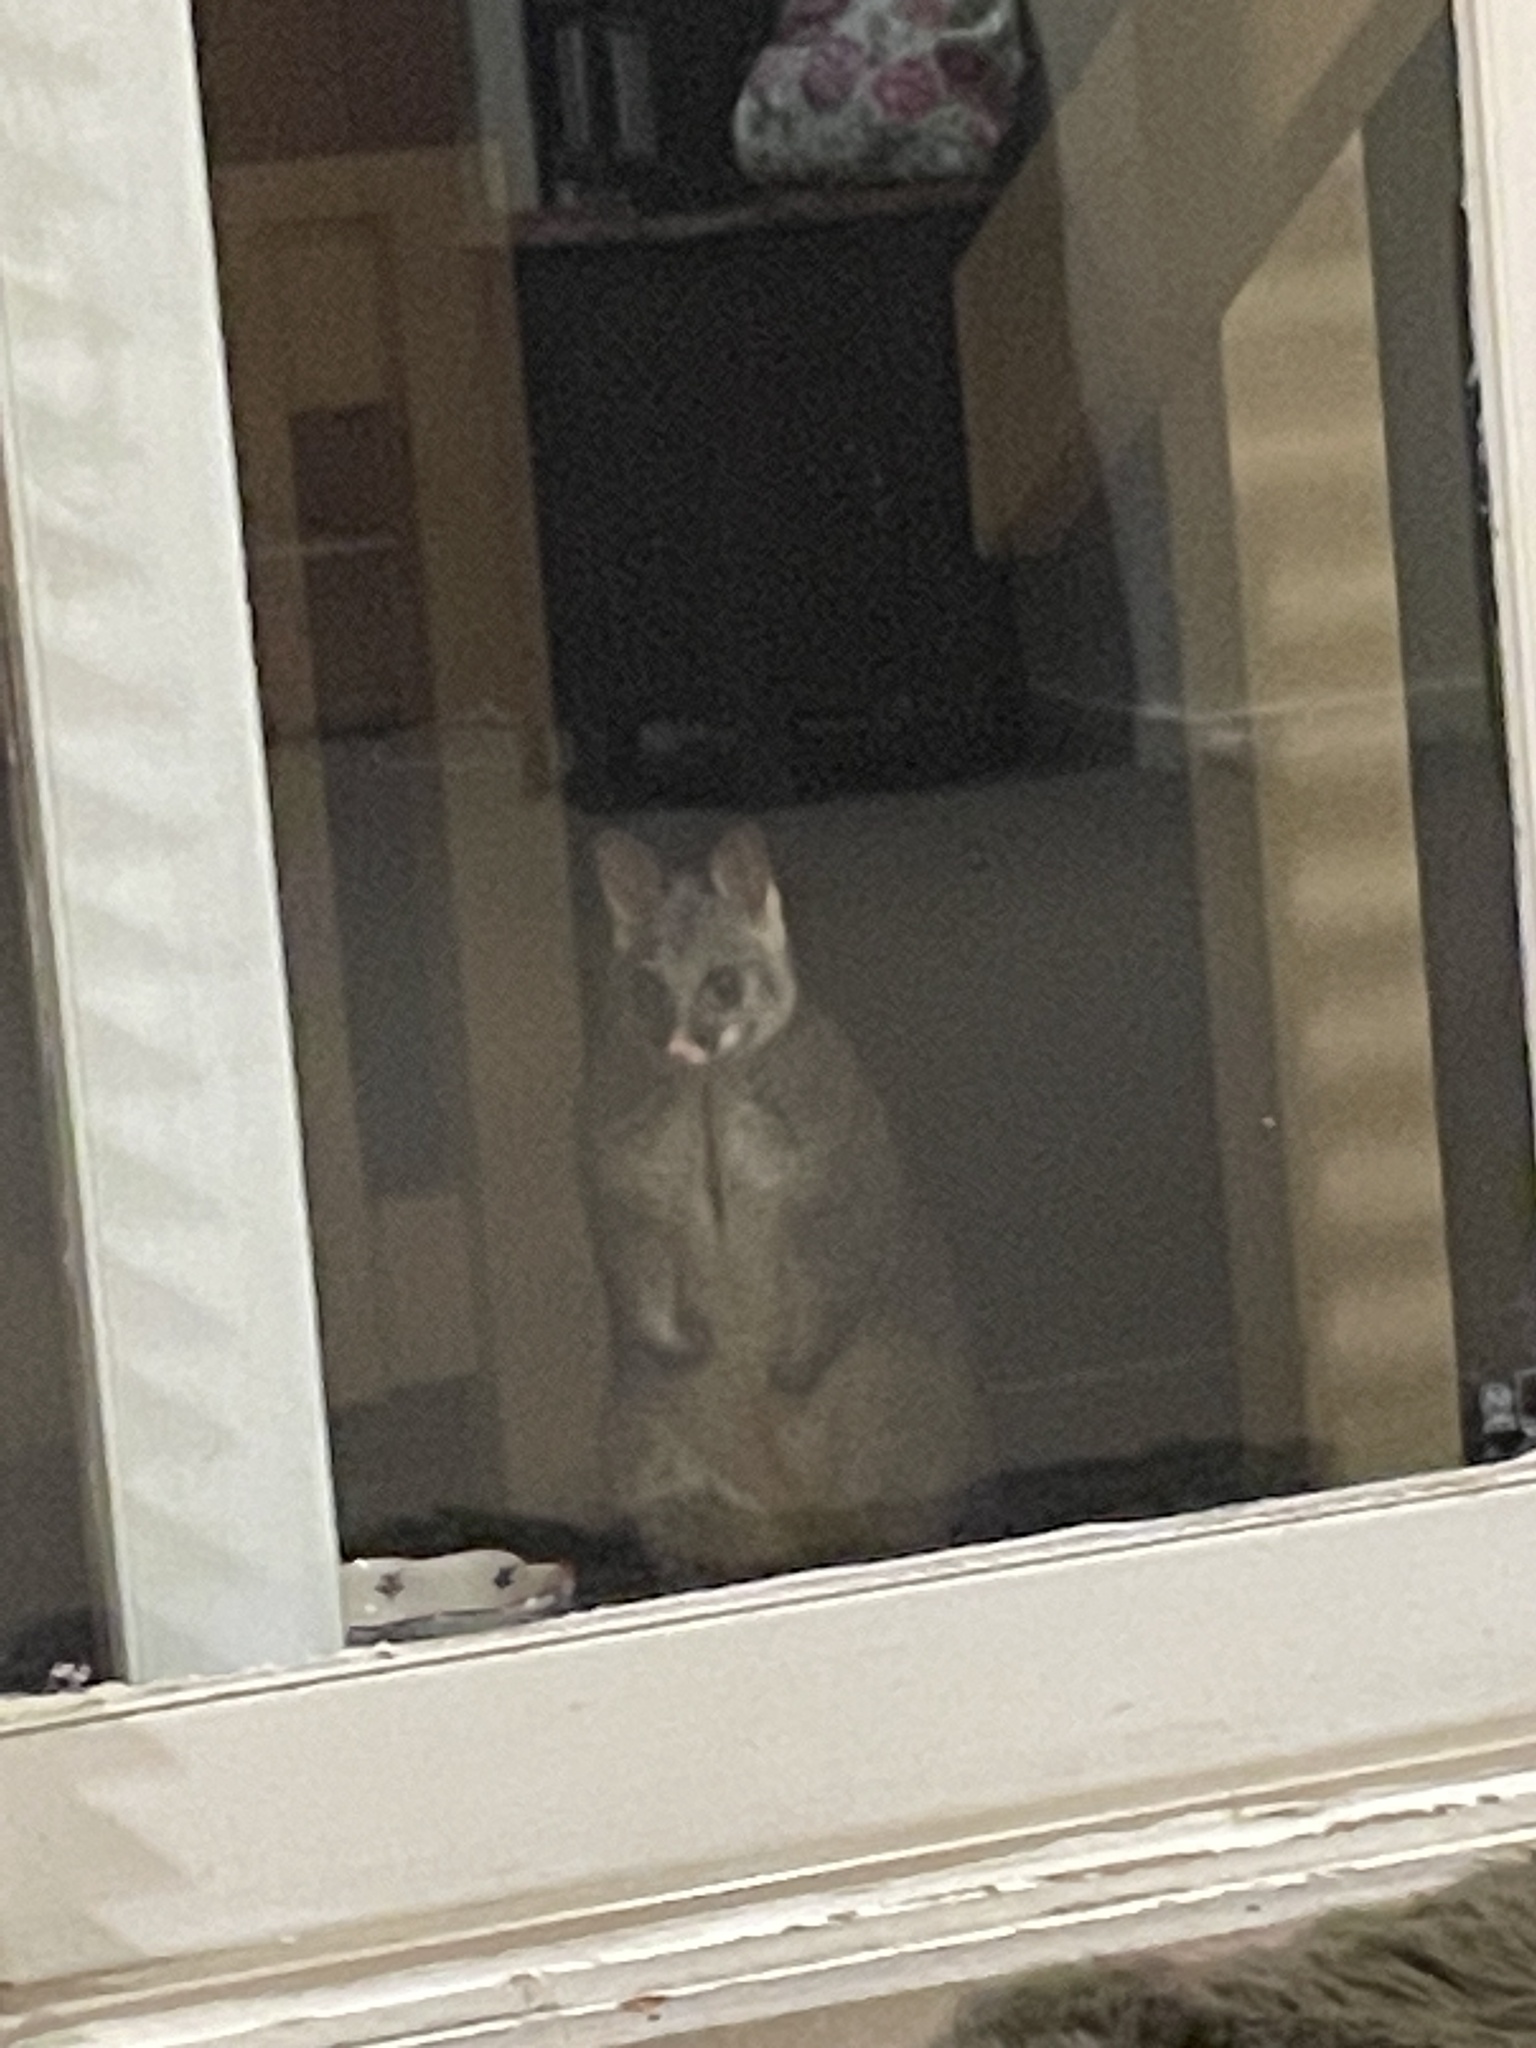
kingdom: Animalia
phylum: Chordata
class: Mammalia
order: Diprotodontia
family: Phalangeridae
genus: Trichosurus
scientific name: Trichosurus vulpecula
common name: Common brushtail
